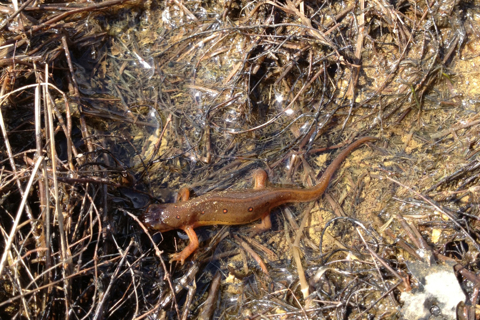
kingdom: Animalia
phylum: Chordata
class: Amphibia
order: Caudata
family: Salamandridae
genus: Notophthalmus
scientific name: Notophthalmus viridescens
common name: Eastern newt
